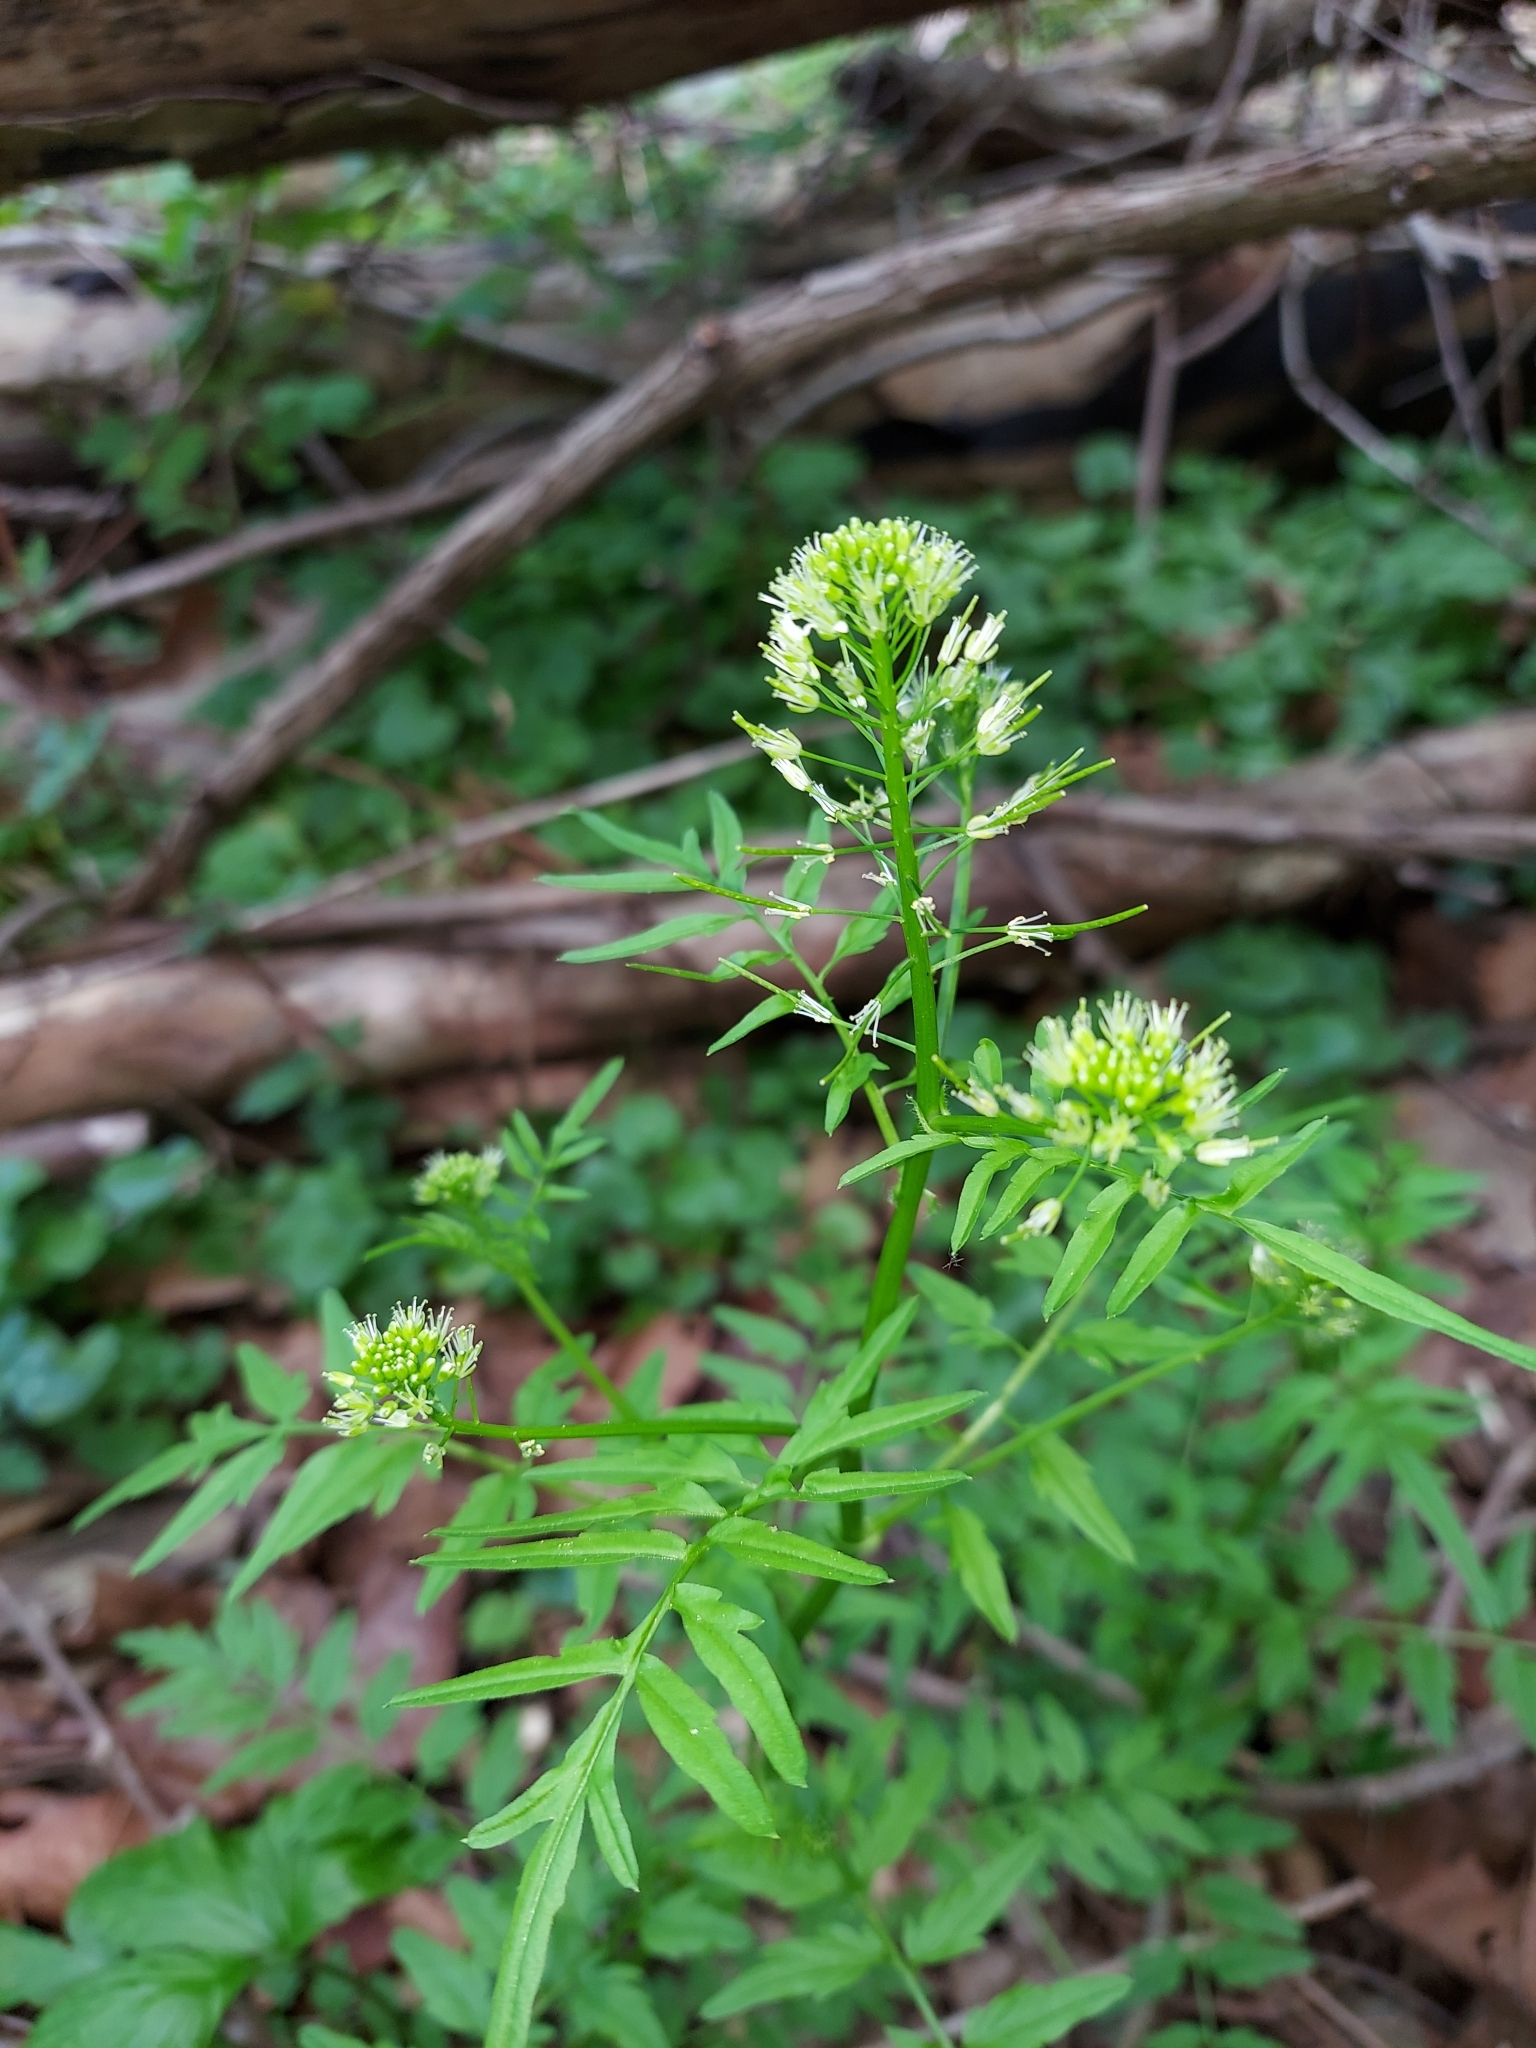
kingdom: Plantae
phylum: Tracheophyta
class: Magnoliopsida
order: Brassicales
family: Brassicaceae
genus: Cardamine
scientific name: Cardamine impatiens
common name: Narrow-leaved bitter-cress
